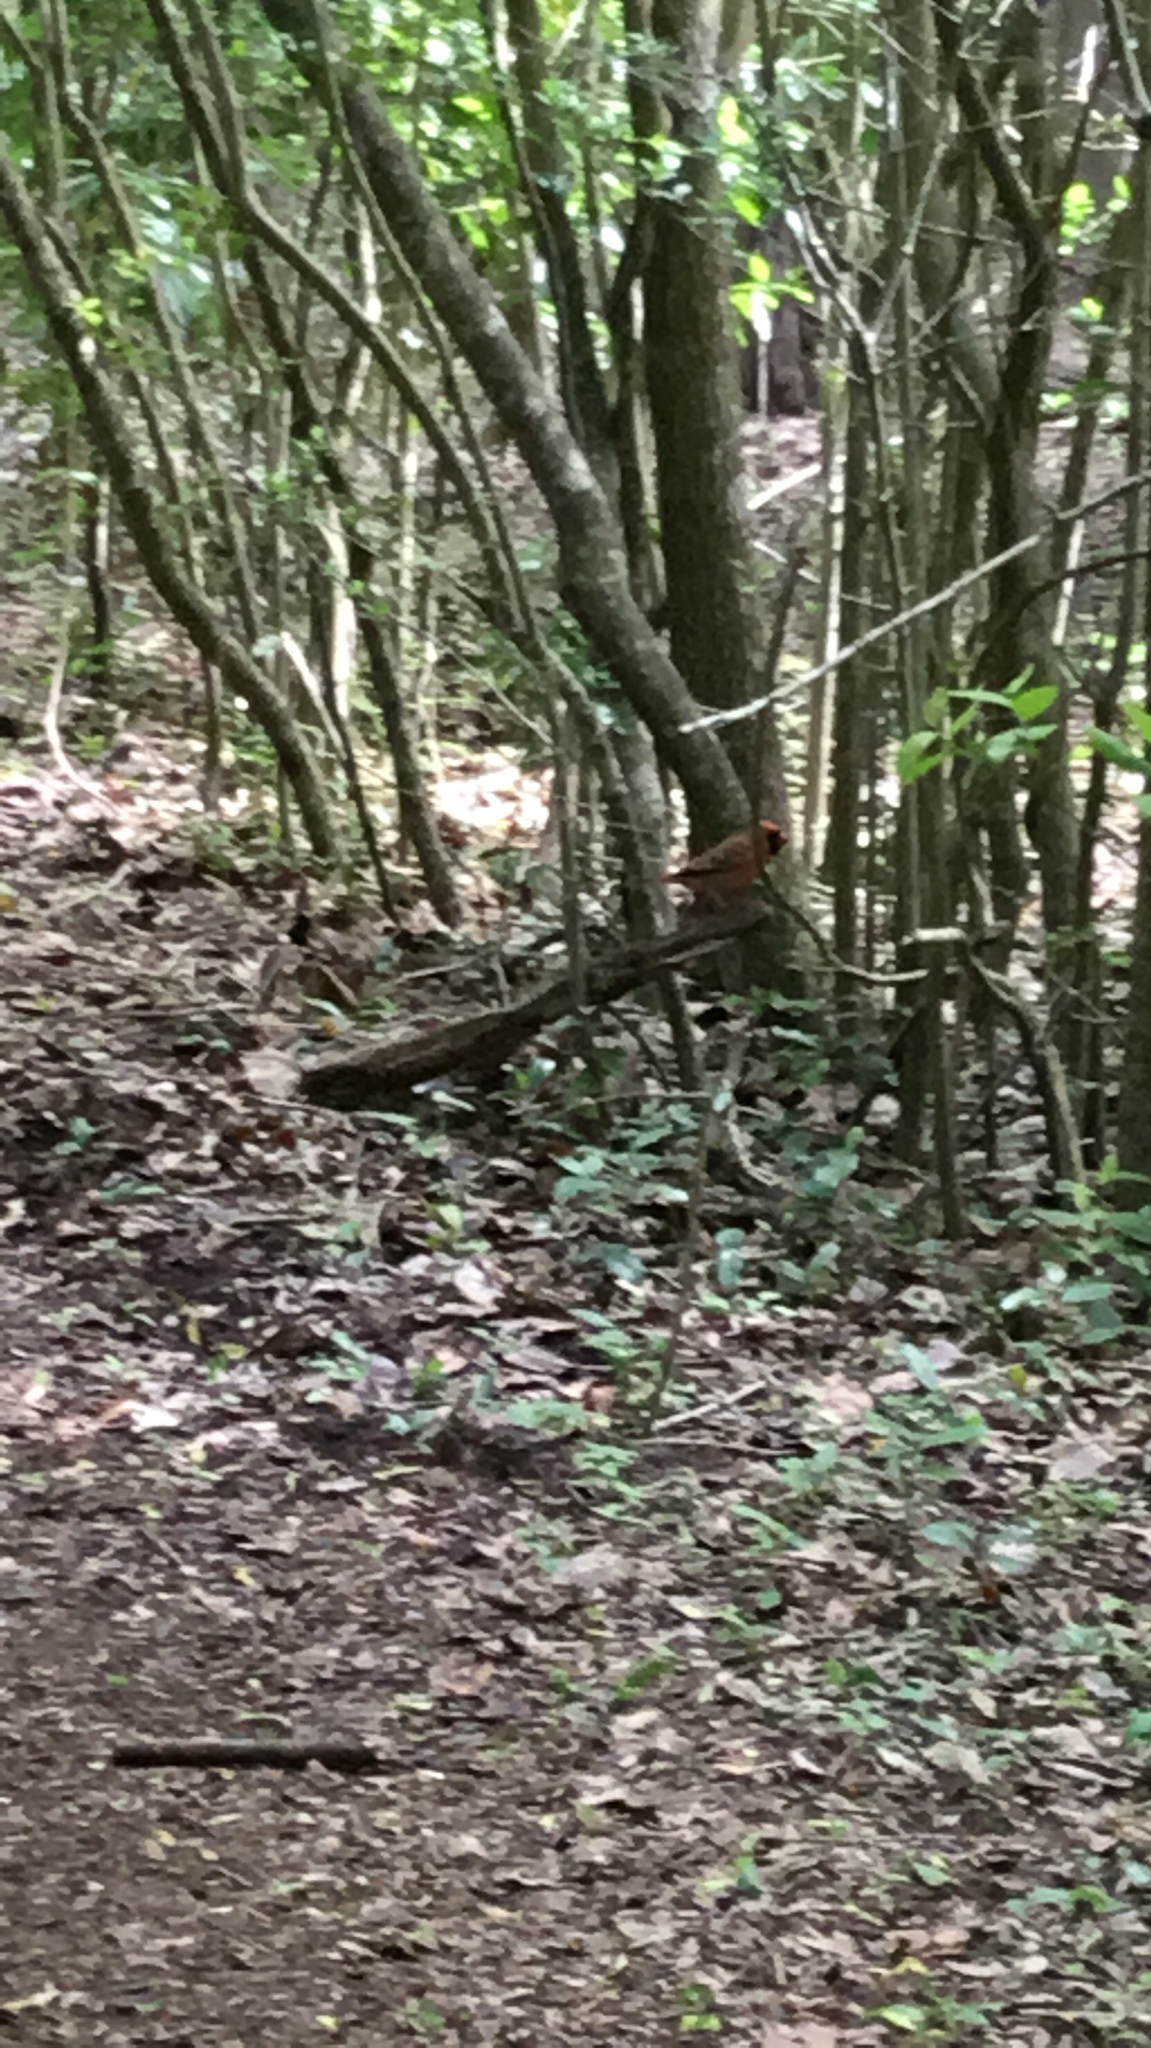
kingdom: Animalia
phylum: Chordata
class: Aves
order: Passeriformes
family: Cardinalidae
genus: Cardinalis
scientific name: Cardinalis cardinalis
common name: Northern cardinal
